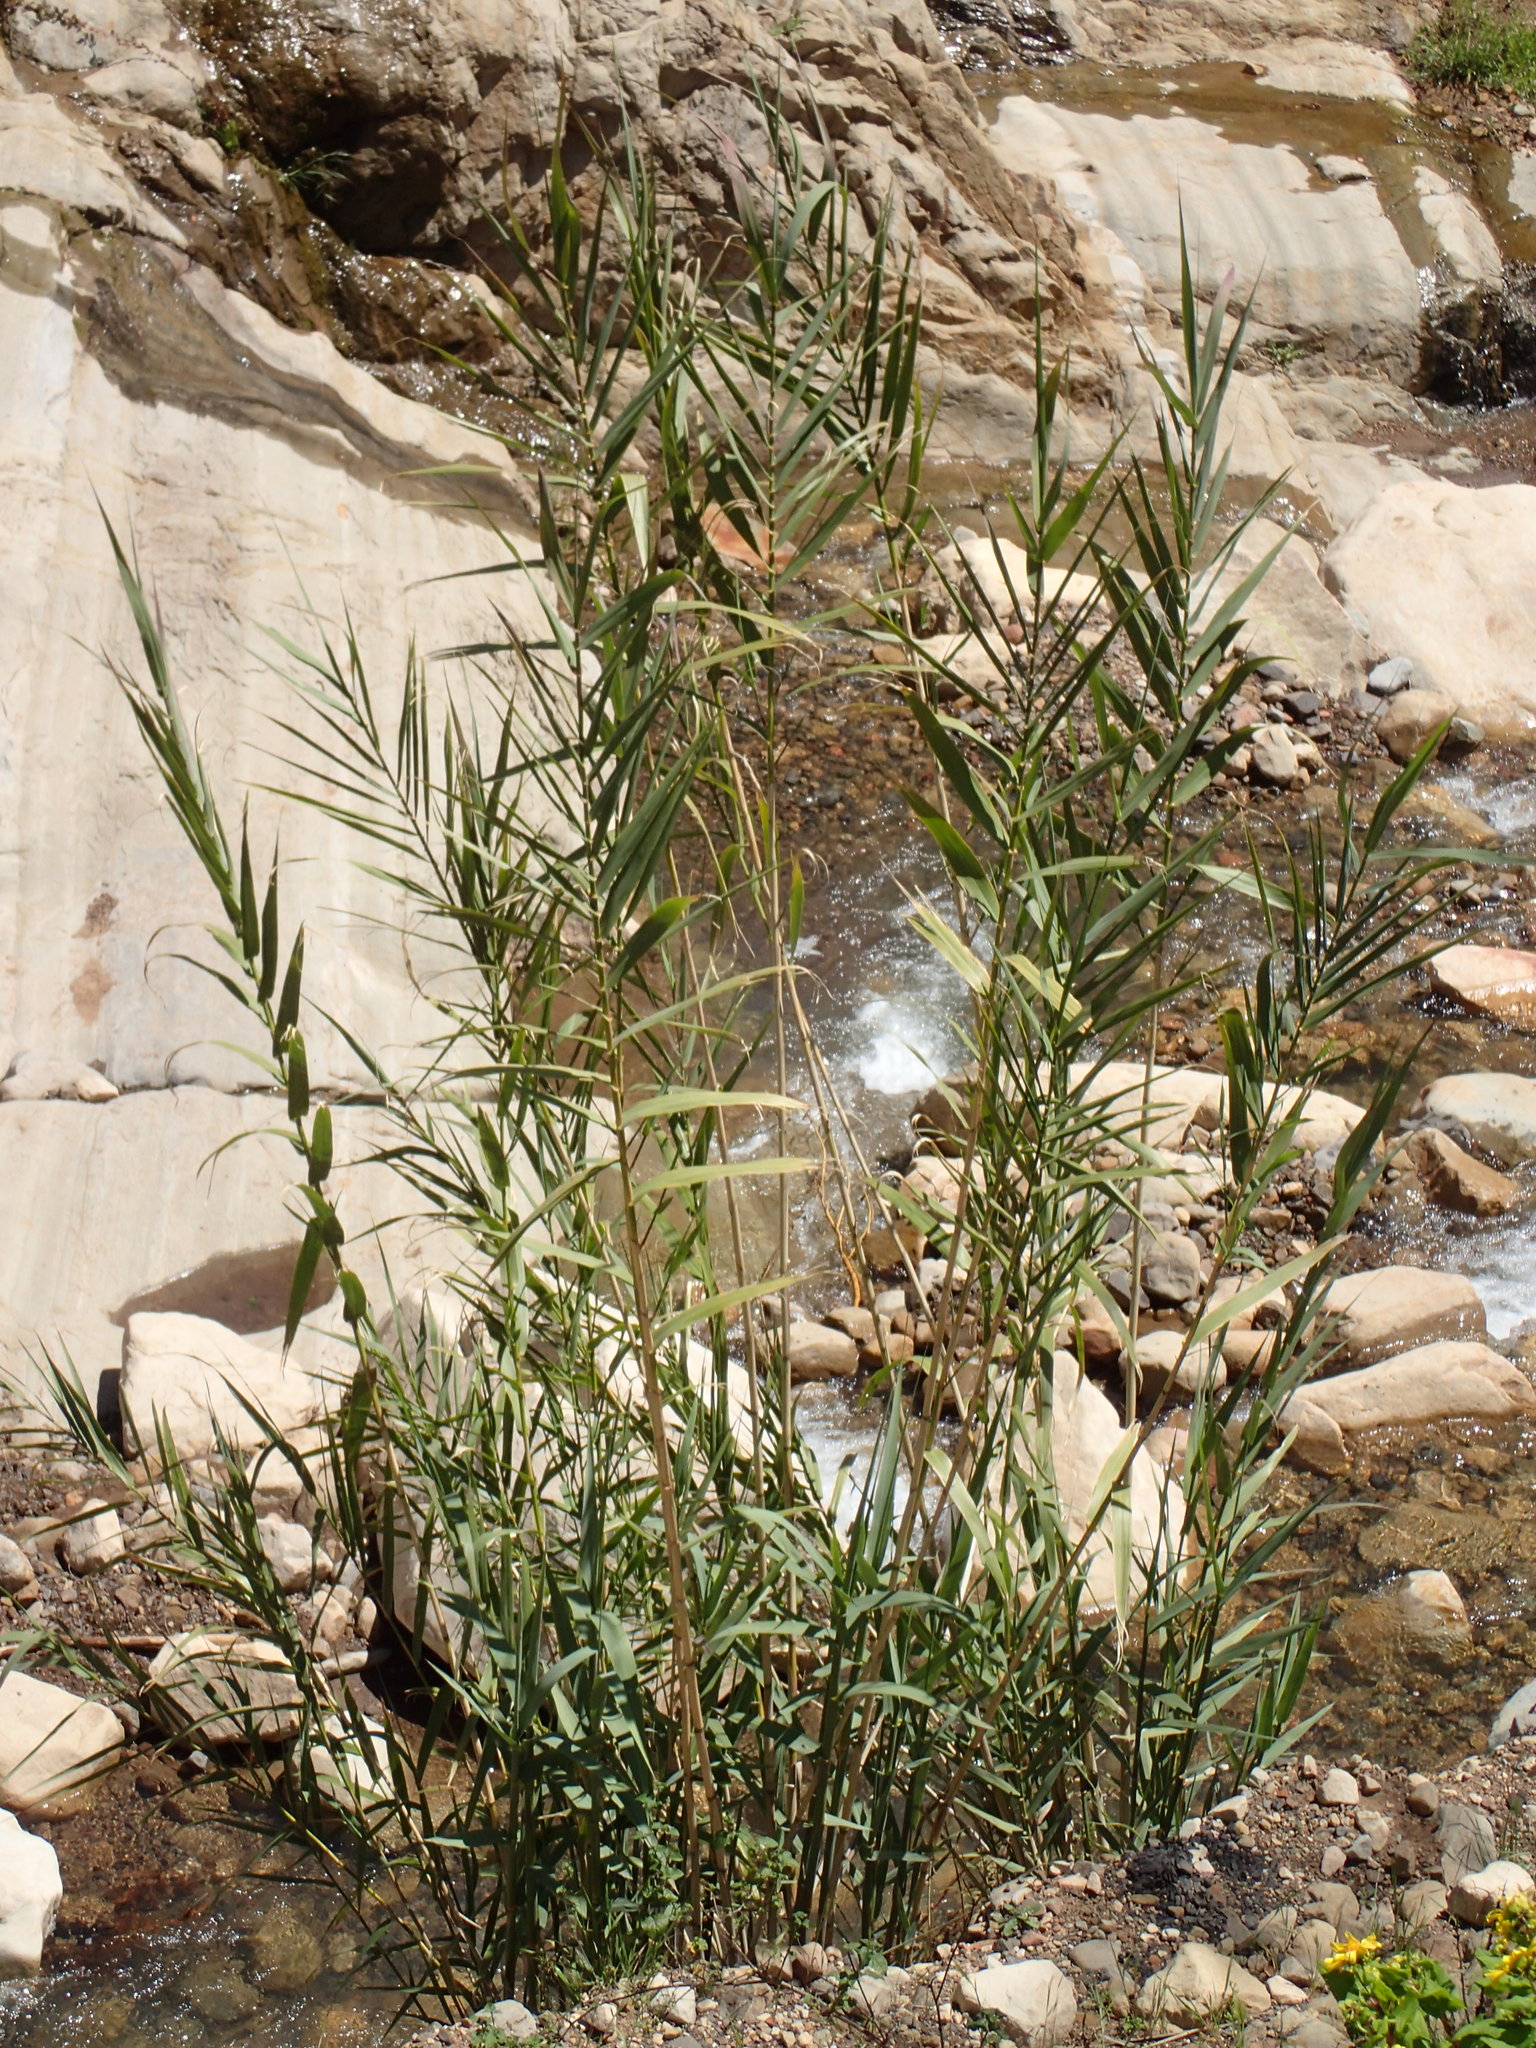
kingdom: Plantae
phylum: Tracheophyta
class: Liliopsida
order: Poales
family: Poaceae
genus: Arundo
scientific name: Arundo donax
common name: Giant reed
